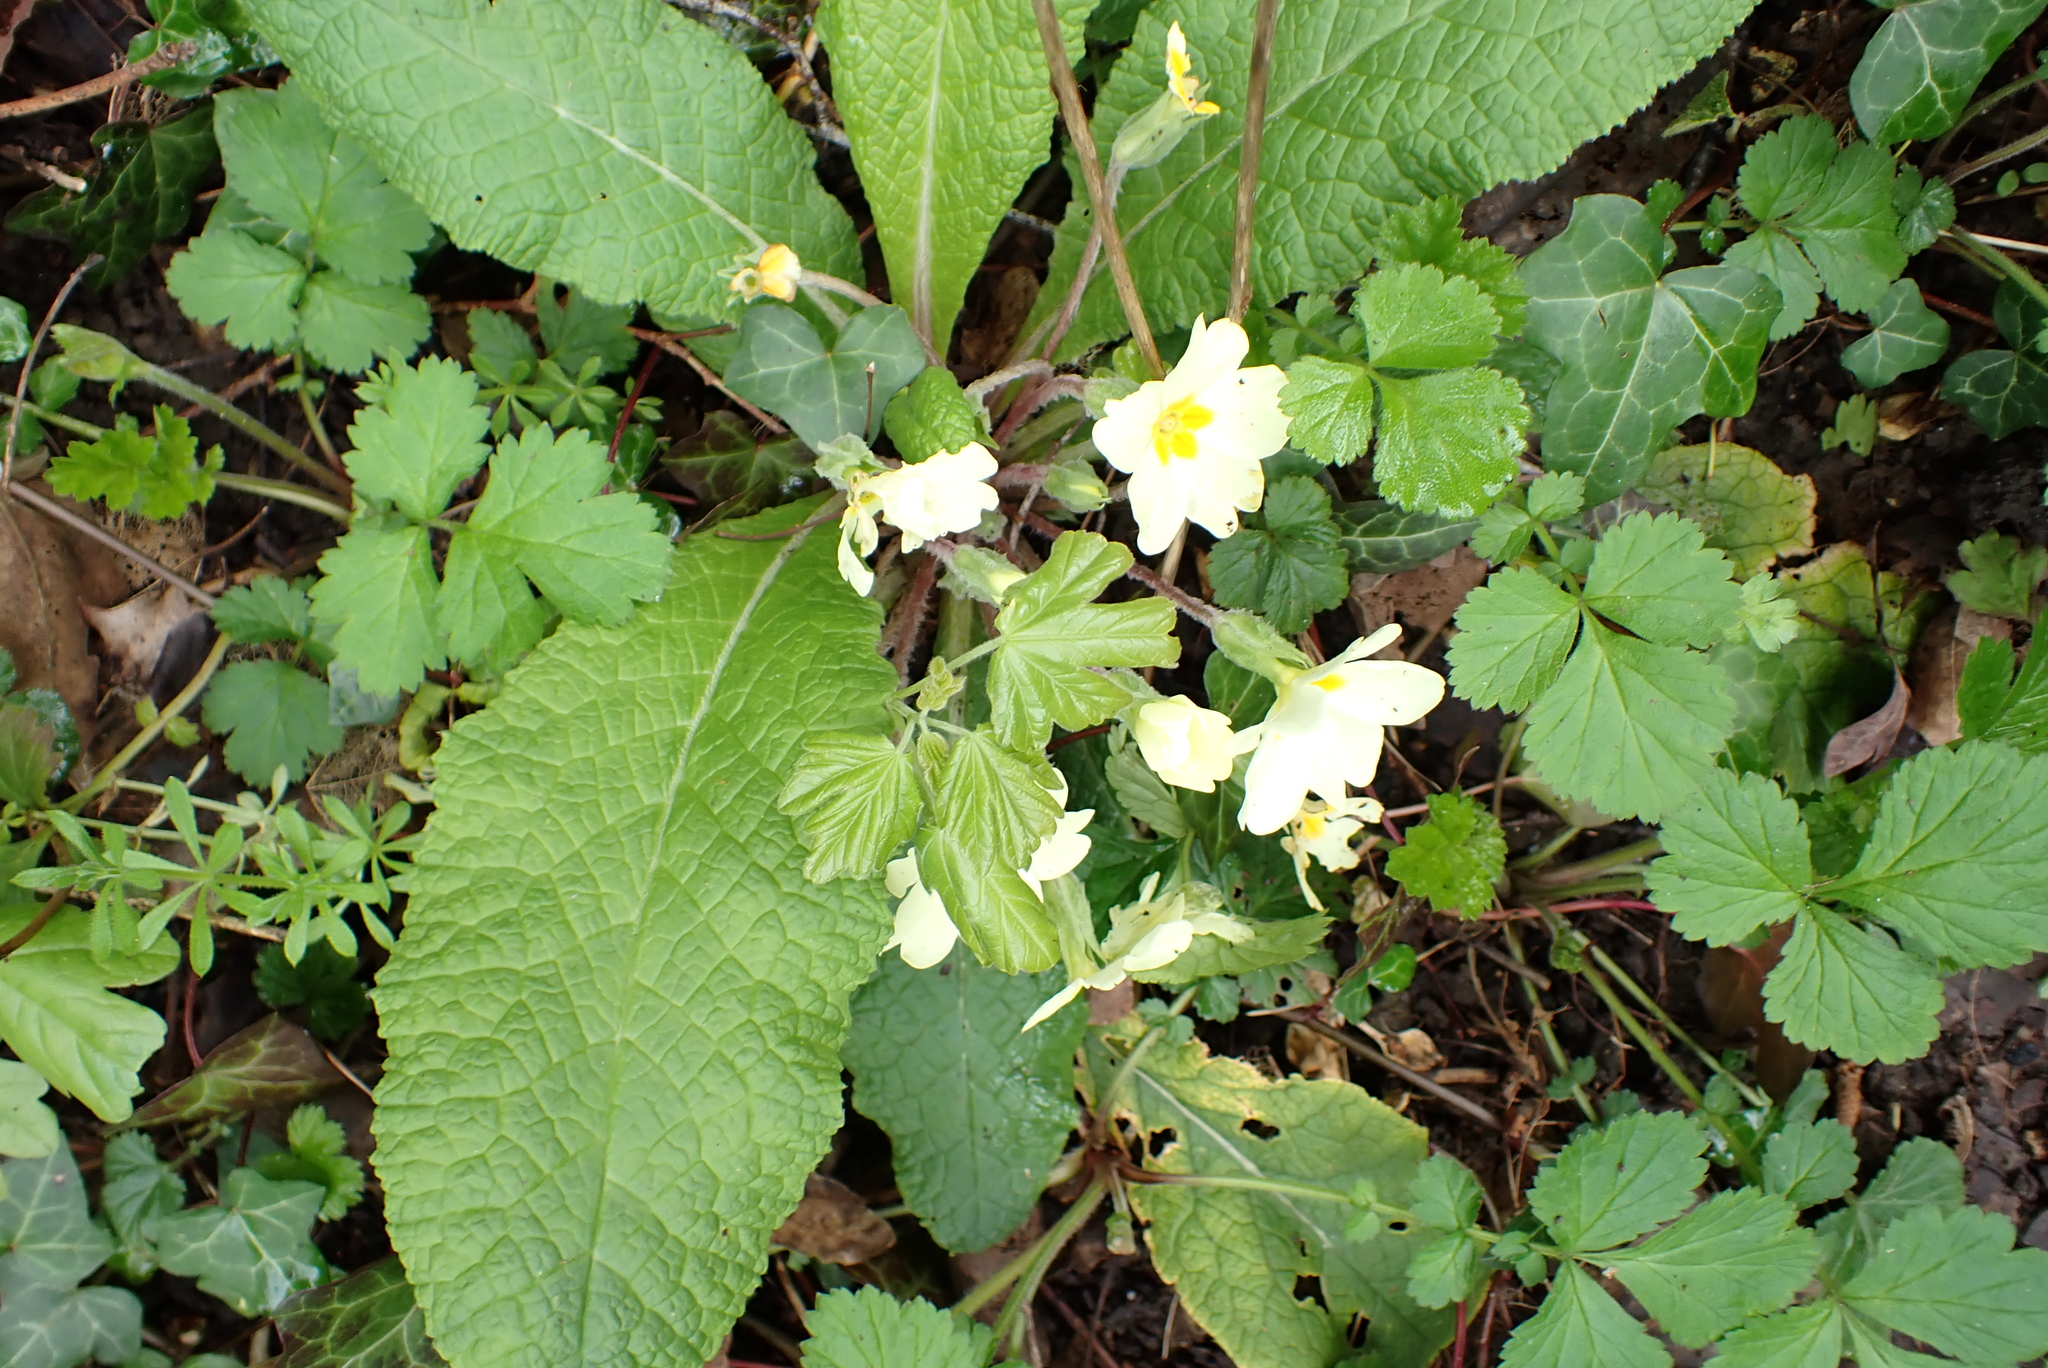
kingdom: Plantae
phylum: Tracheophyta
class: Magnoliopsida
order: Ericales
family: Primulaceae
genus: Primula
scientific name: Primula vulgaris
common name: Primrose
